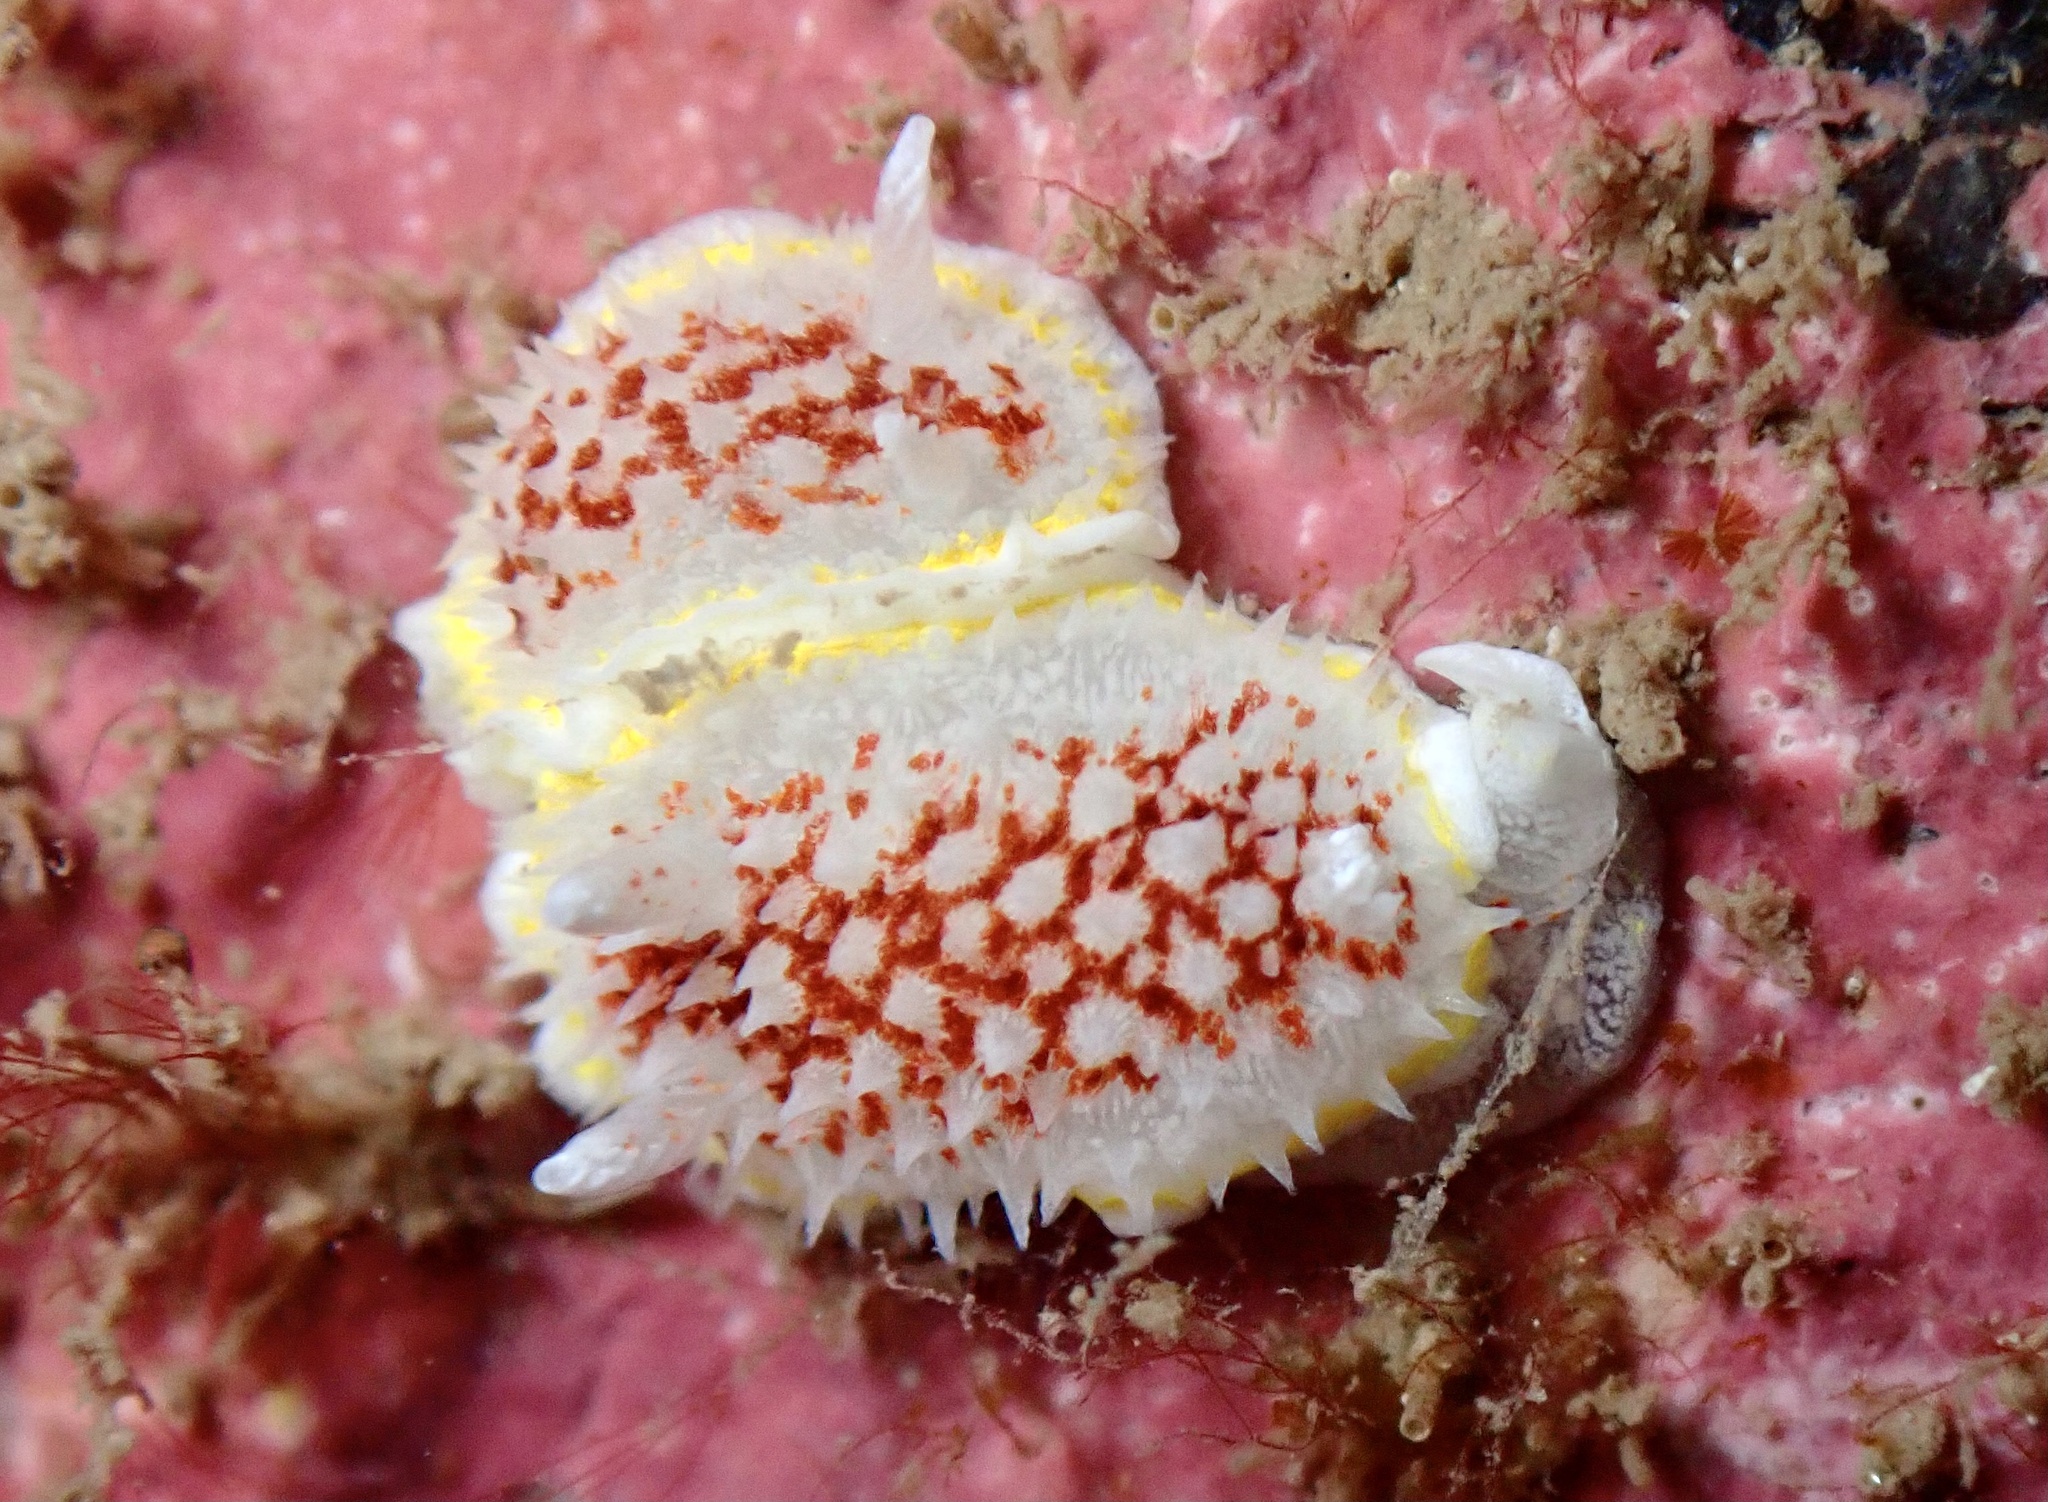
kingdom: Animalia
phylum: Mollusca
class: Gastropoda
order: Nudibranchia
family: Calycidorididae
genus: Diaphorodoris
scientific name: Diaphorodoris luteocincta
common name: Fried egg nudibranch
